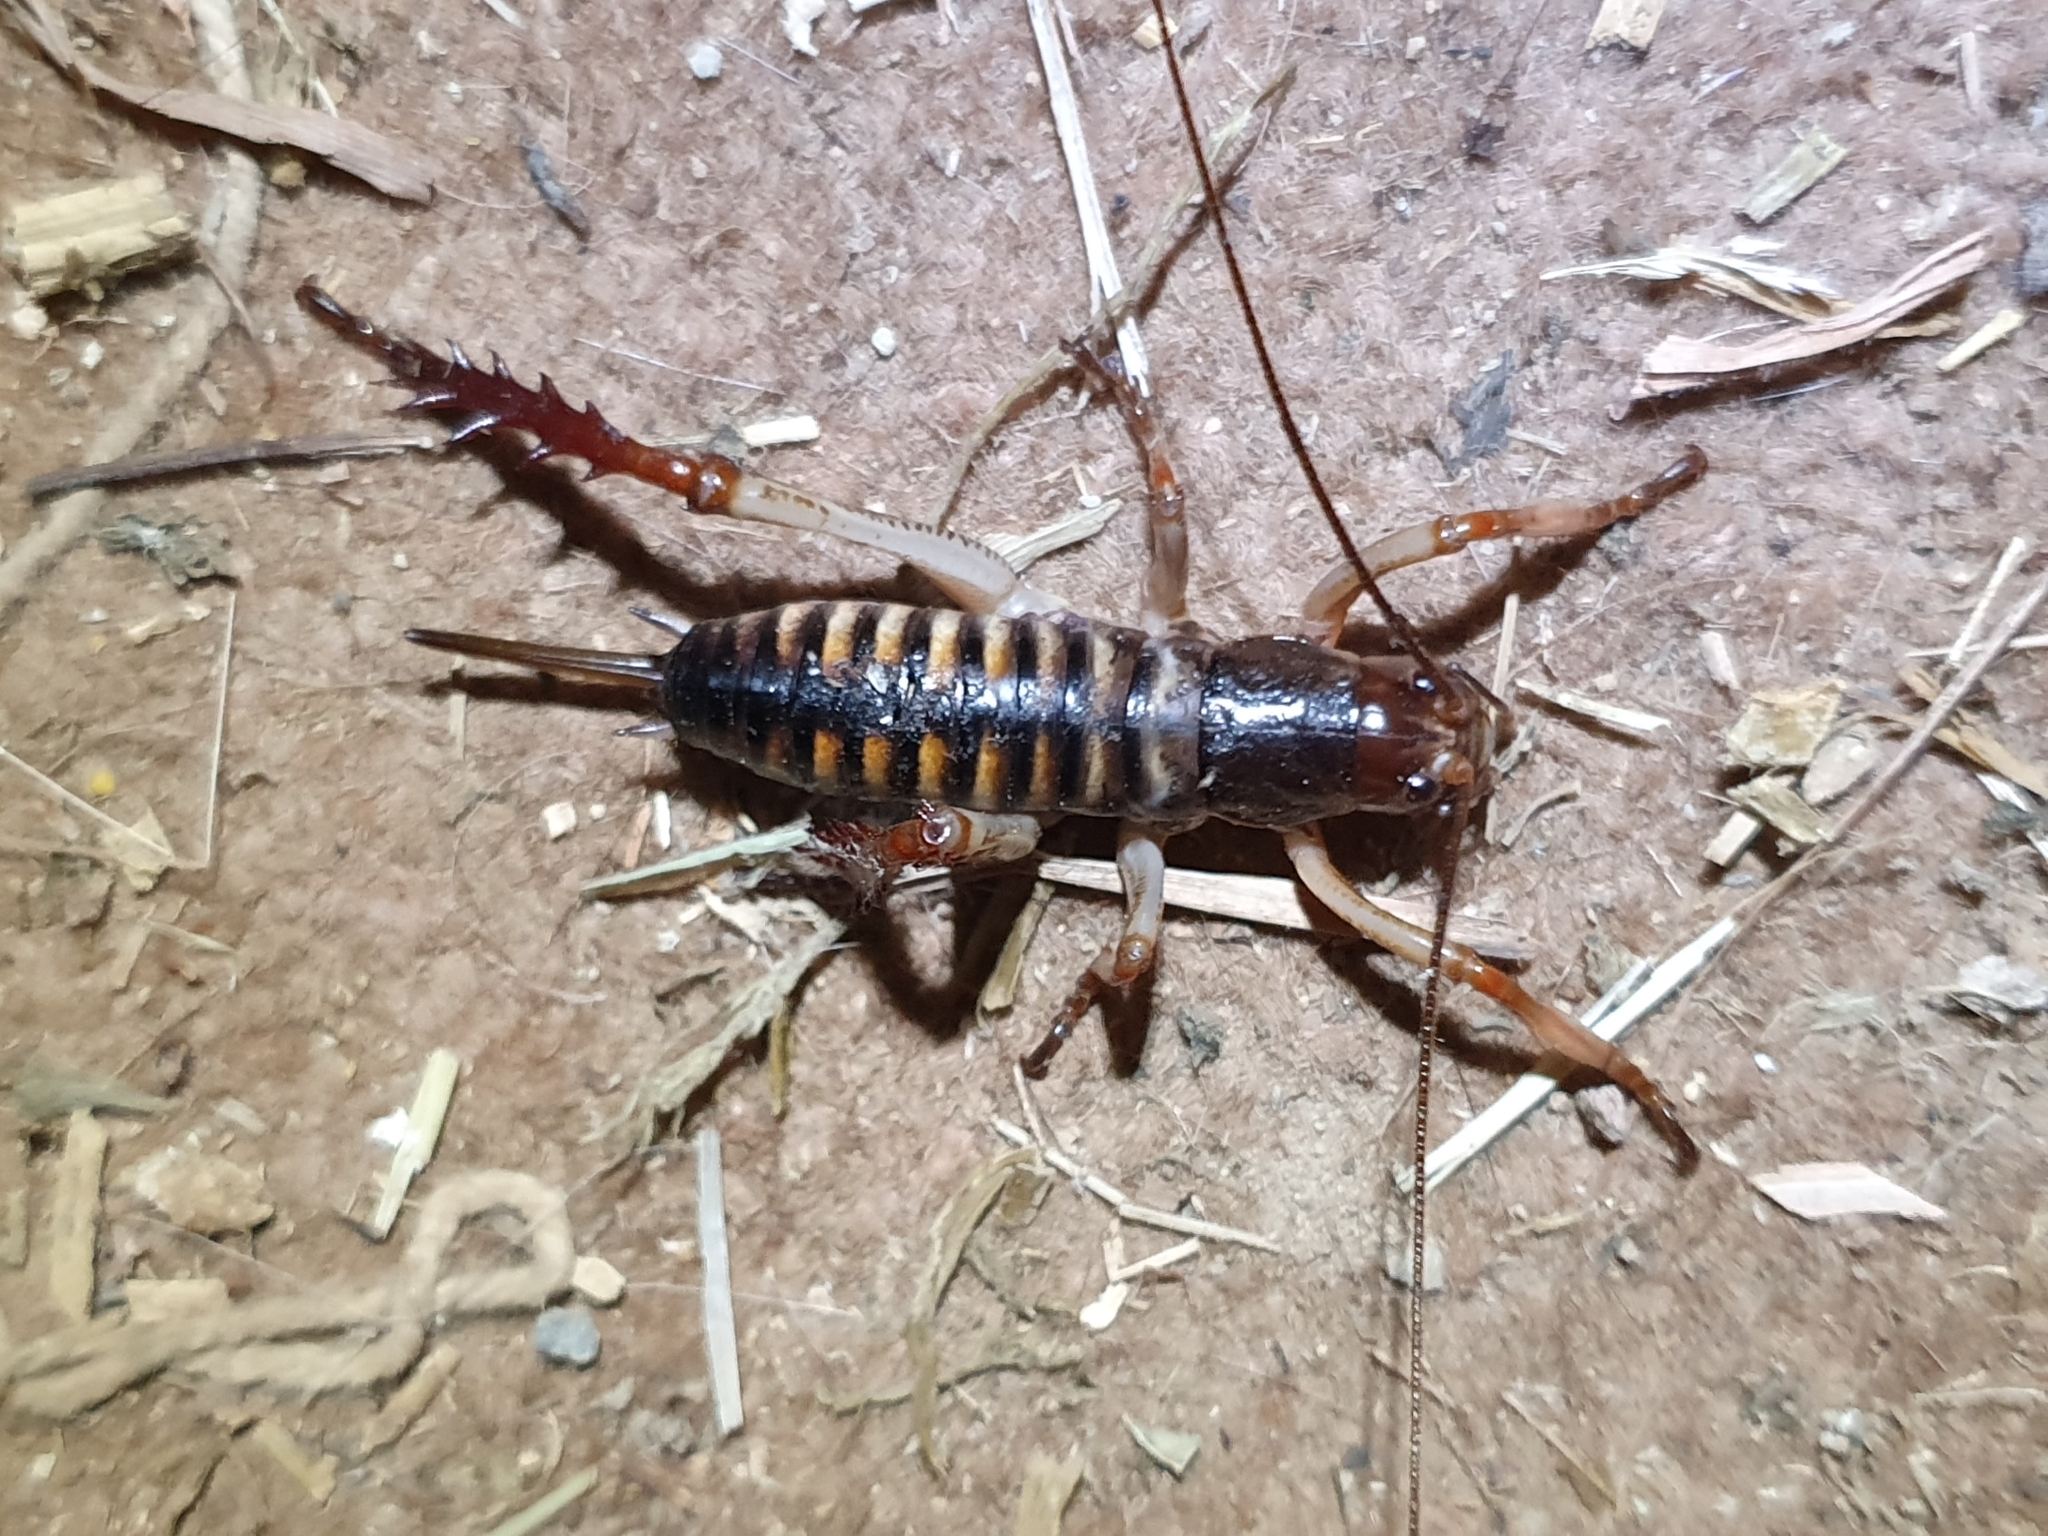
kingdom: Animalia
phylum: Arthropoda
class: Insecta
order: Orthoptera
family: Anostostomatidae
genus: Hemideina
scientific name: Hemideina crassidens
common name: Wellington tree weta
